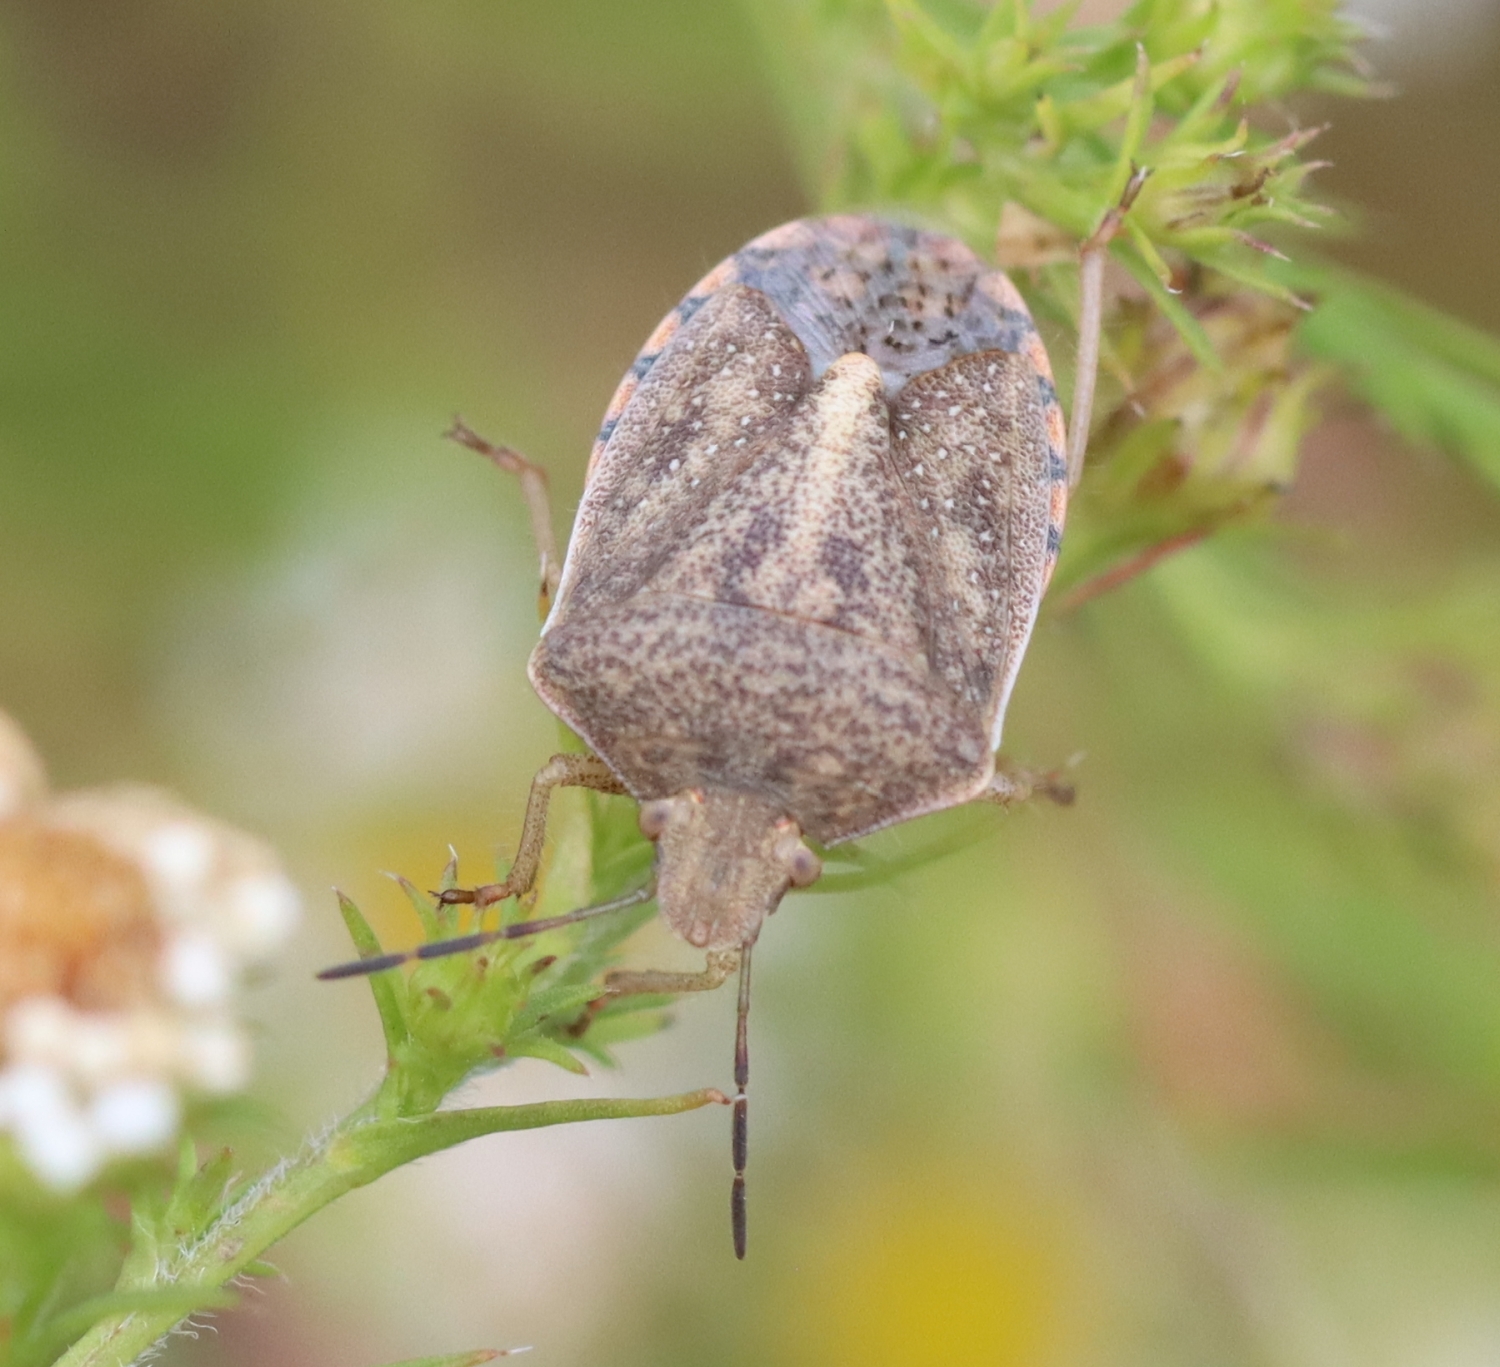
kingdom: Animalia
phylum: Arthropoda
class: Insecta
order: Hemiptera
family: Pentatomidae
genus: Thyanta
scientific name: Thyanta accerra
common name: Stink bug
